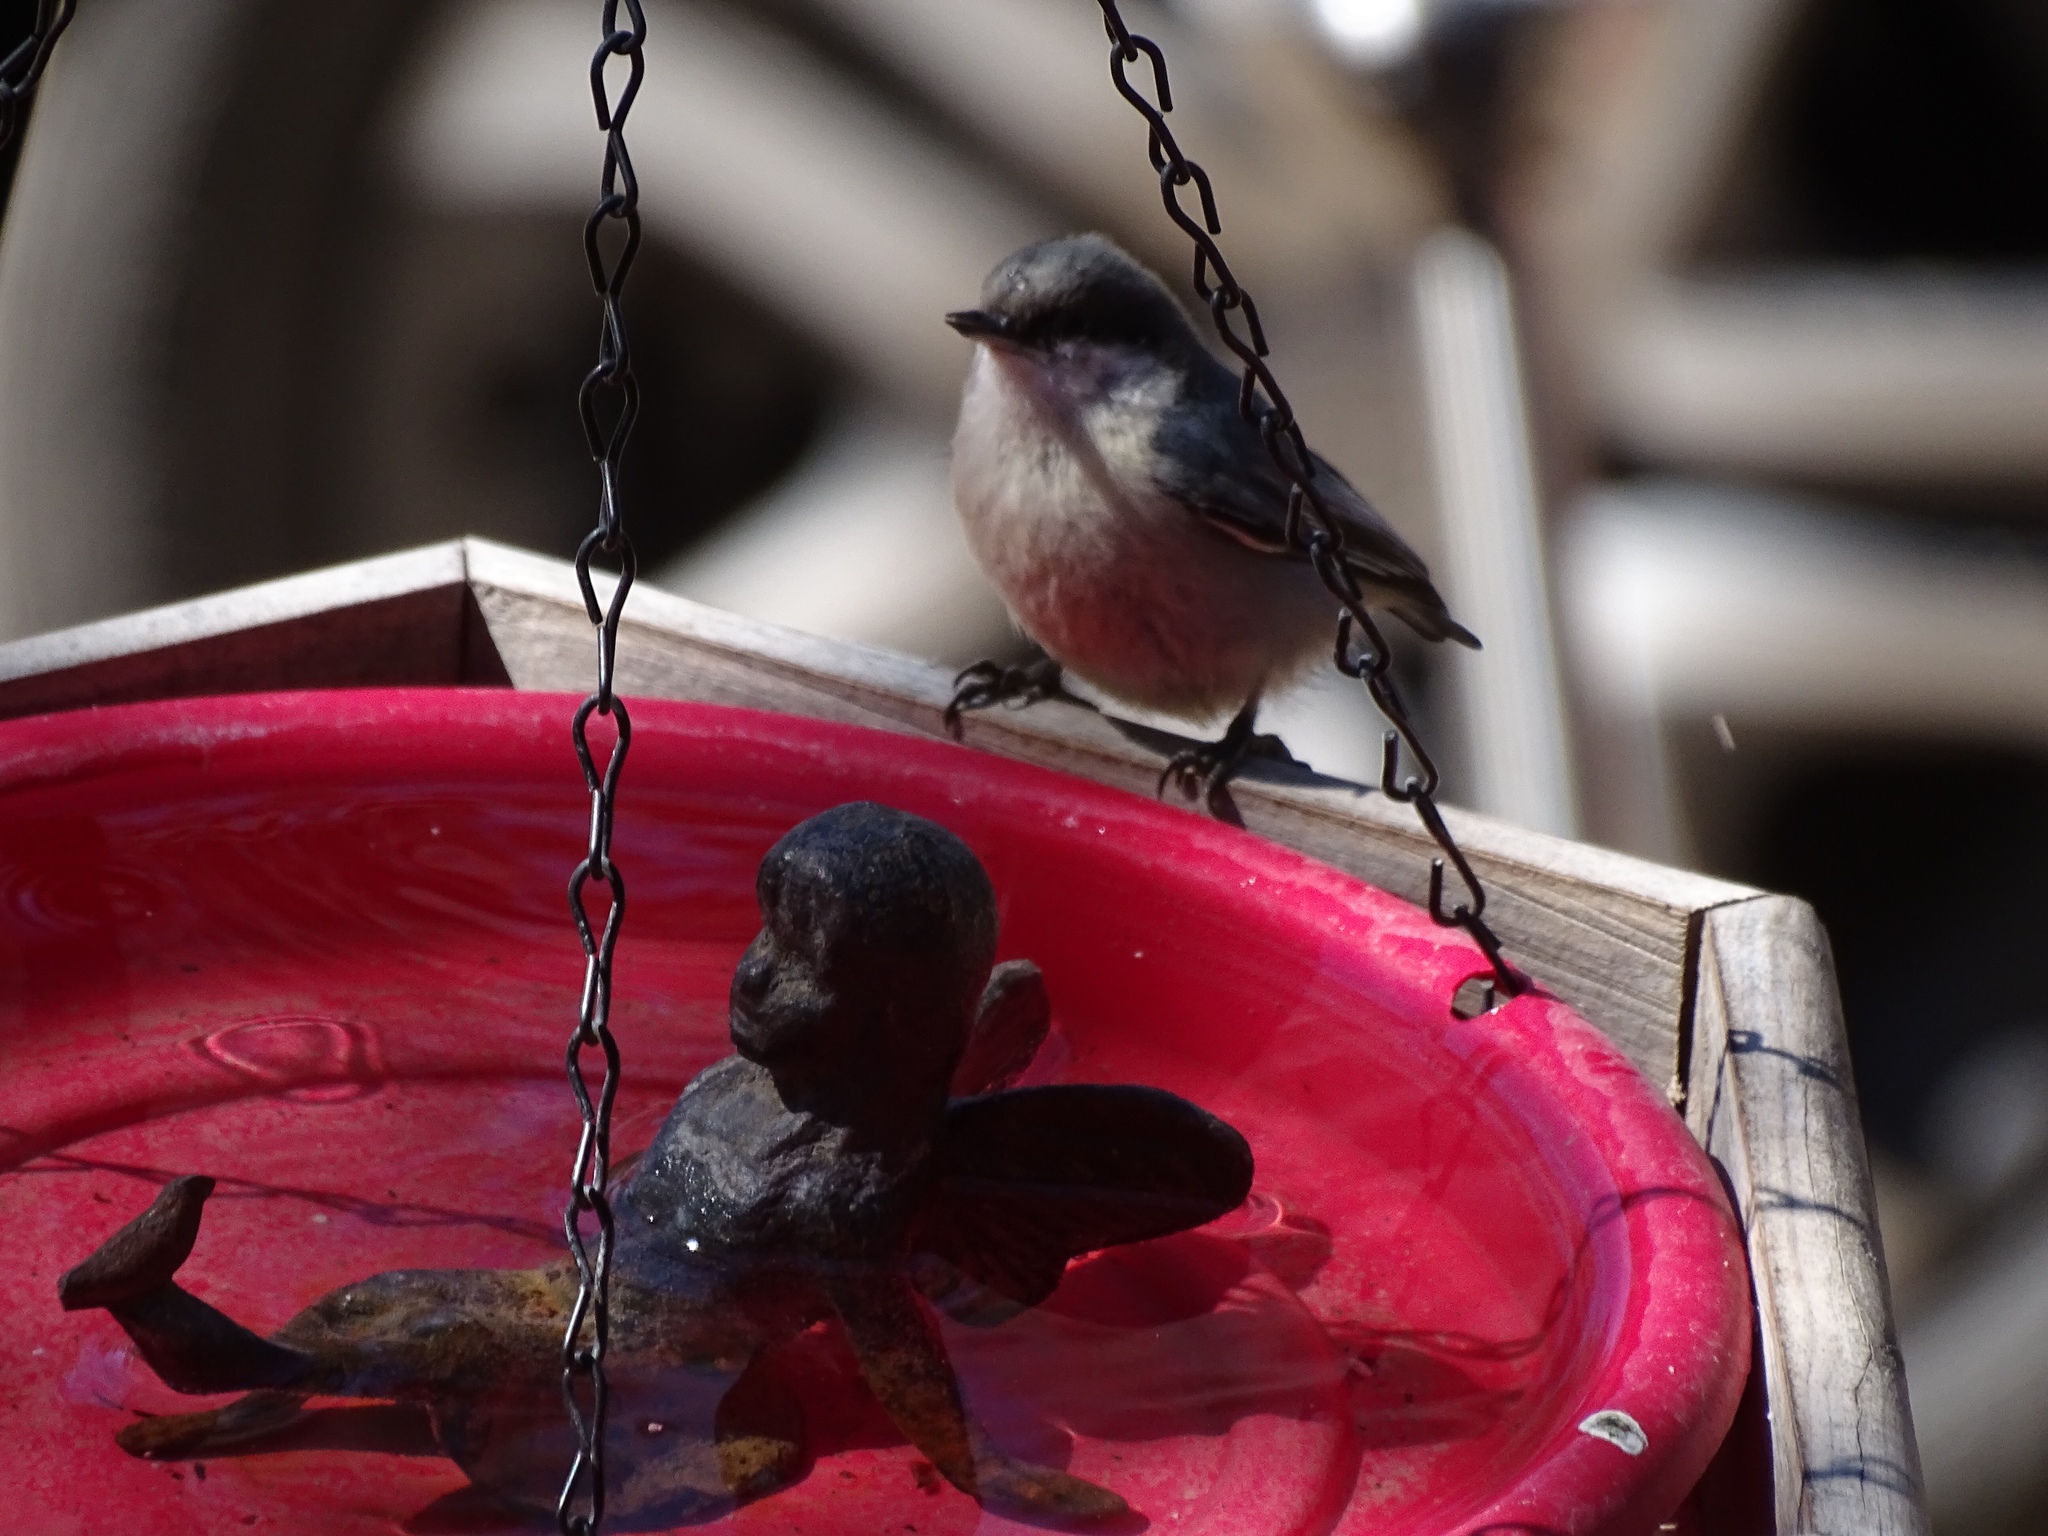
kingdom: Animalia
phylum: Chordata
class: Aves
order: Passeriformes
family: Sittidae
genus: Sitta
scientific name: Sitta pygmaea
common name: Pygmy nuthatch
